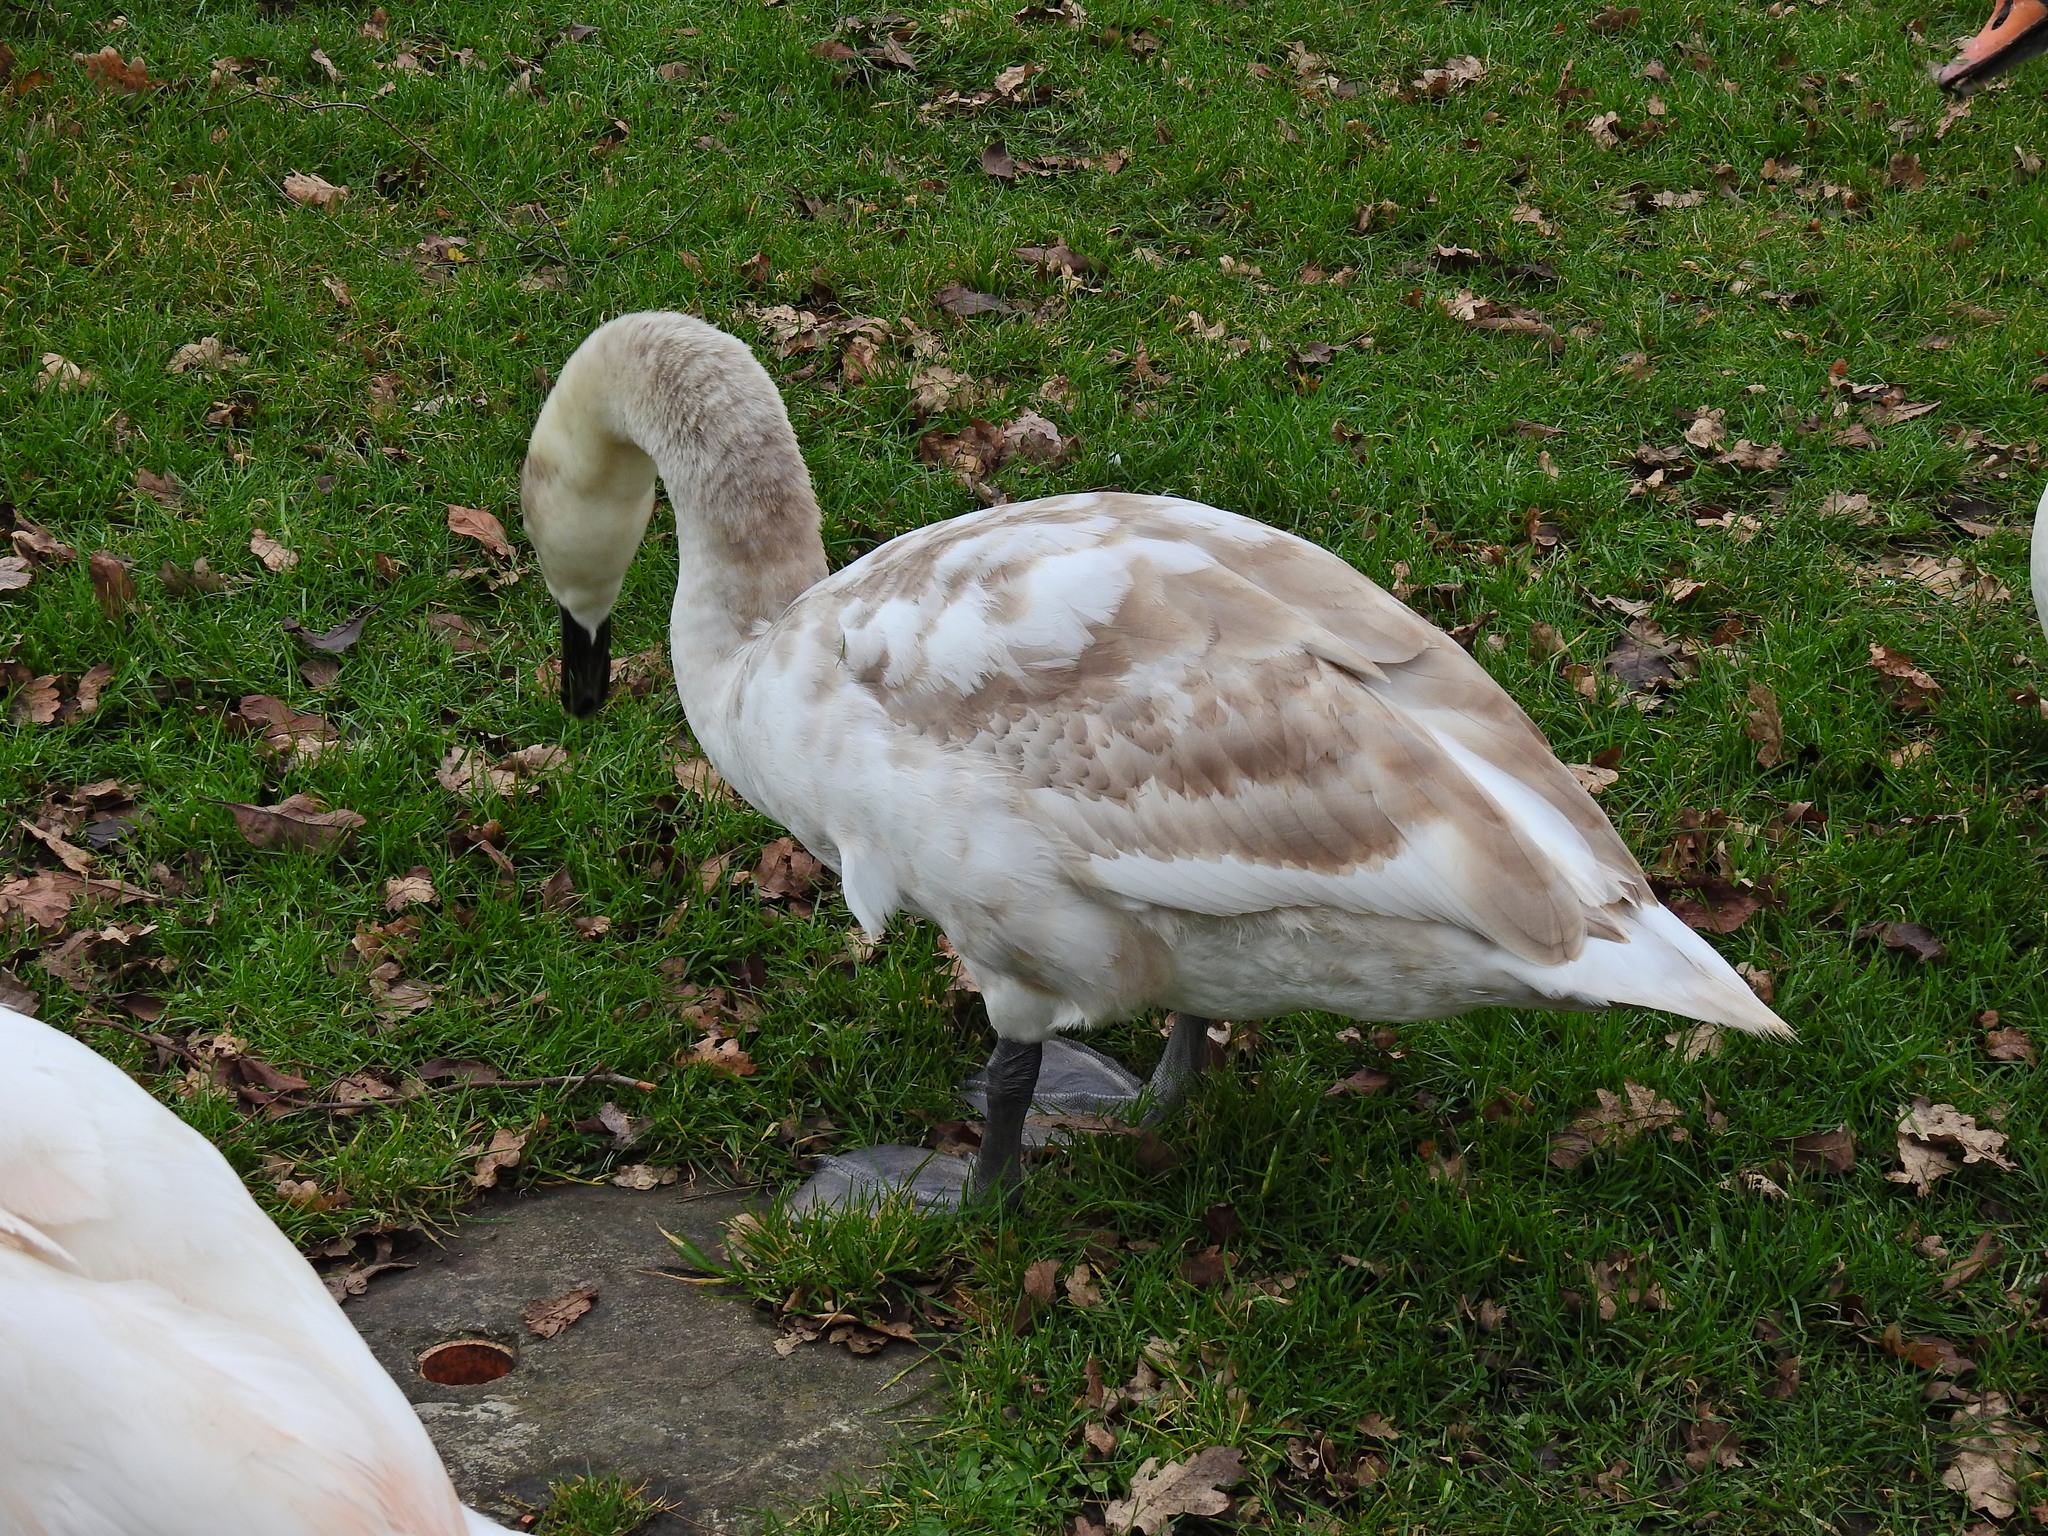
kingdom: Animalia
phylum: Chordata
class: Aves
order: Anseriformes
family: Anatidae
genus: Cygnus
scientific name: Cygnus olor
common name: Mute swan
